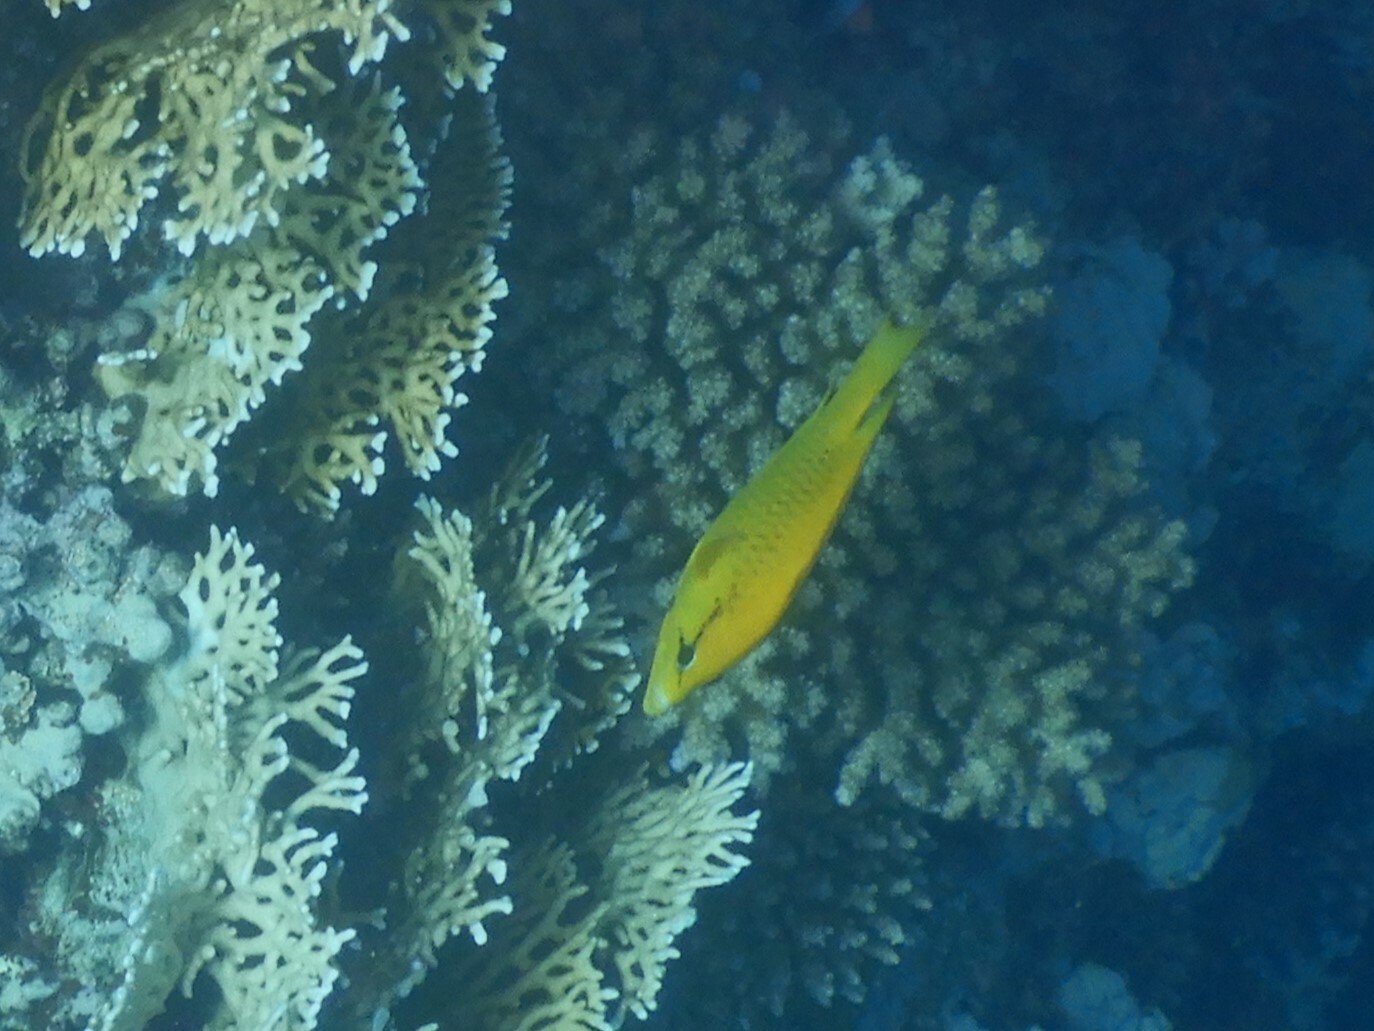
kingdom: Animalia
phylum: Chordata
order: Perciformes
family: Labridae
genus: Epibulus
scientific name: Epibulus insidiator
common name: Slingjaw wrasse
